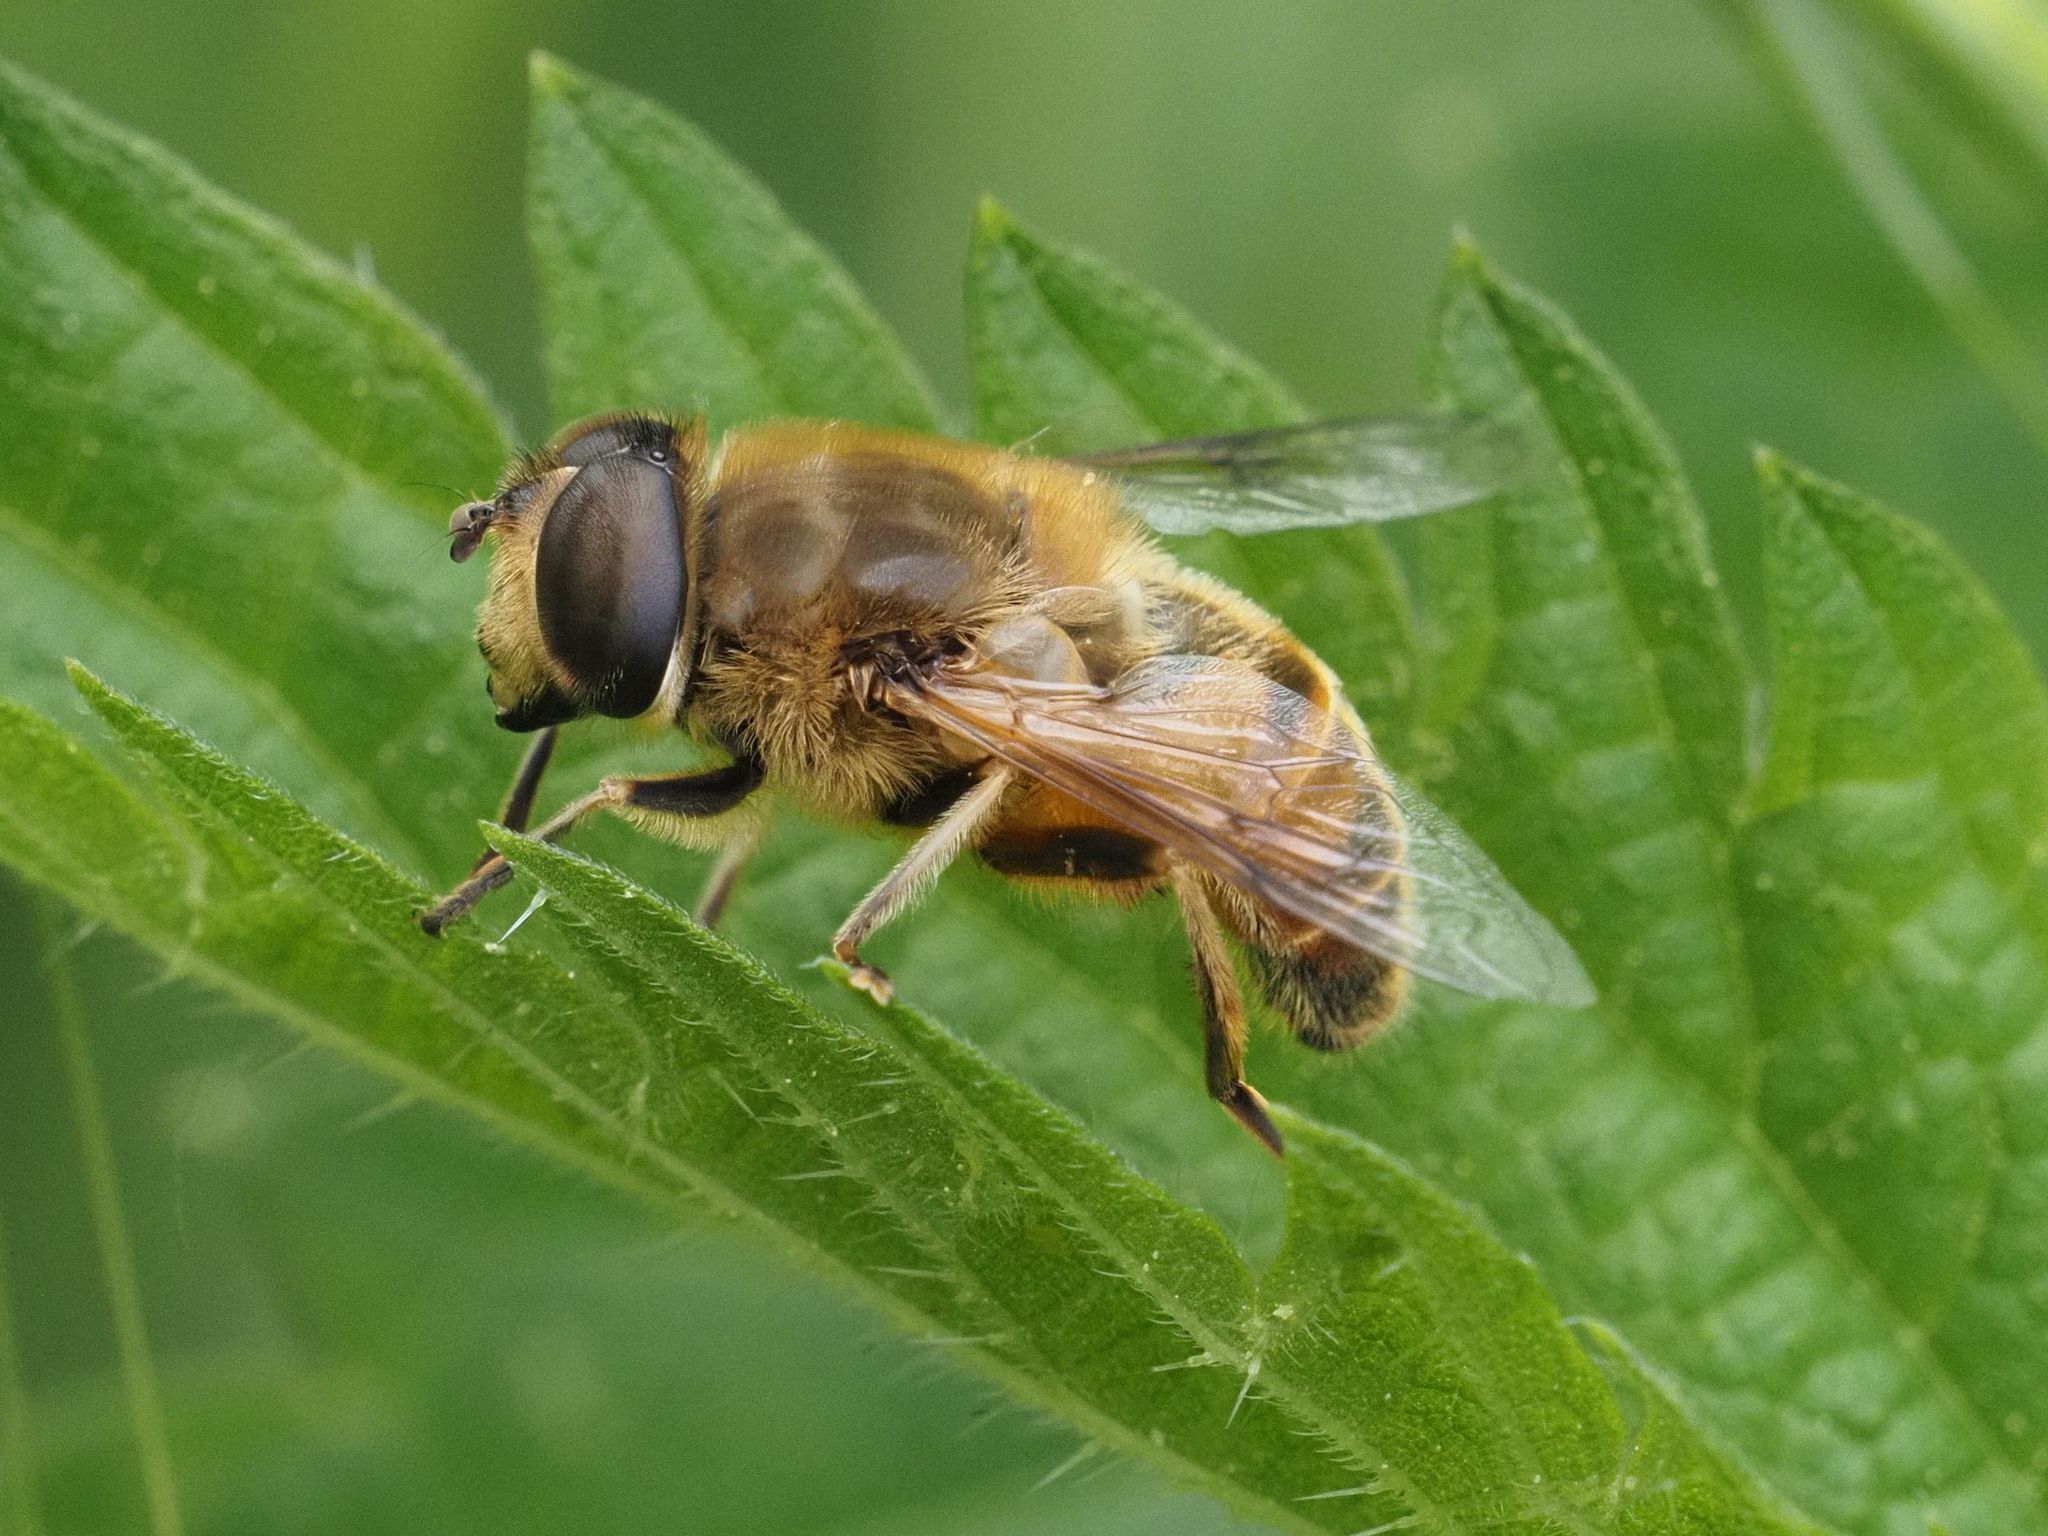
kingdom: Animalia
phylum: Arthropoda
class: Insecta
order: Diptera
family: Syrphidae
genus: Eristalis
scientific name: Eristalis tenax
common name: Drone fly
